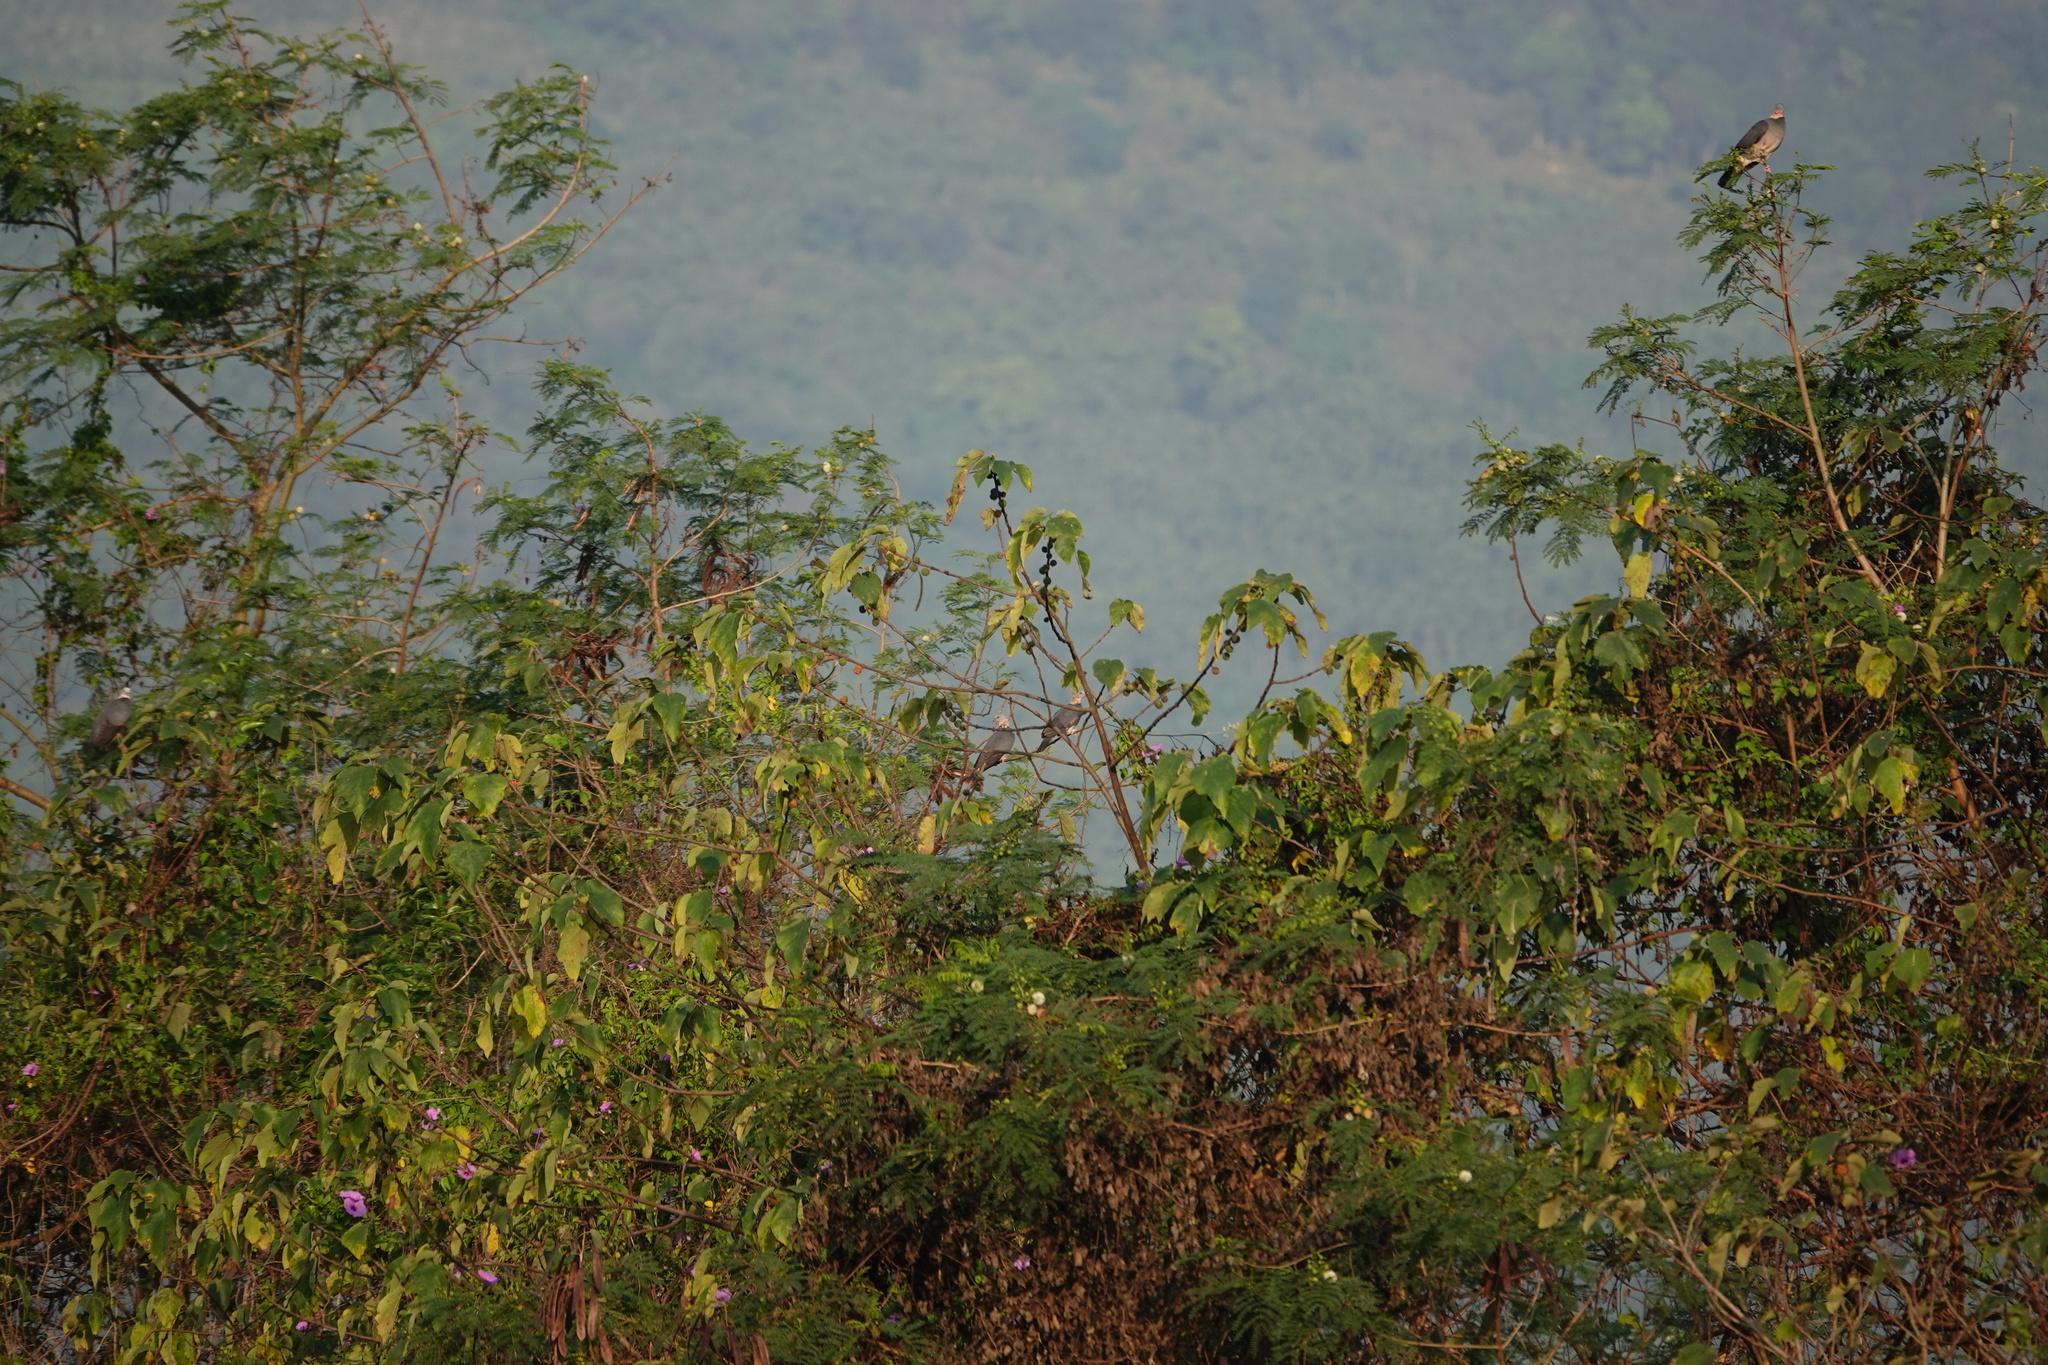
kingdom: Animalia
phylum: Chordata
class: Aves
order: Columbiformes
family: Columbidae
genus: Columba
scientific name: Columba pulchricollis
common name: Ashy wood pigeon
